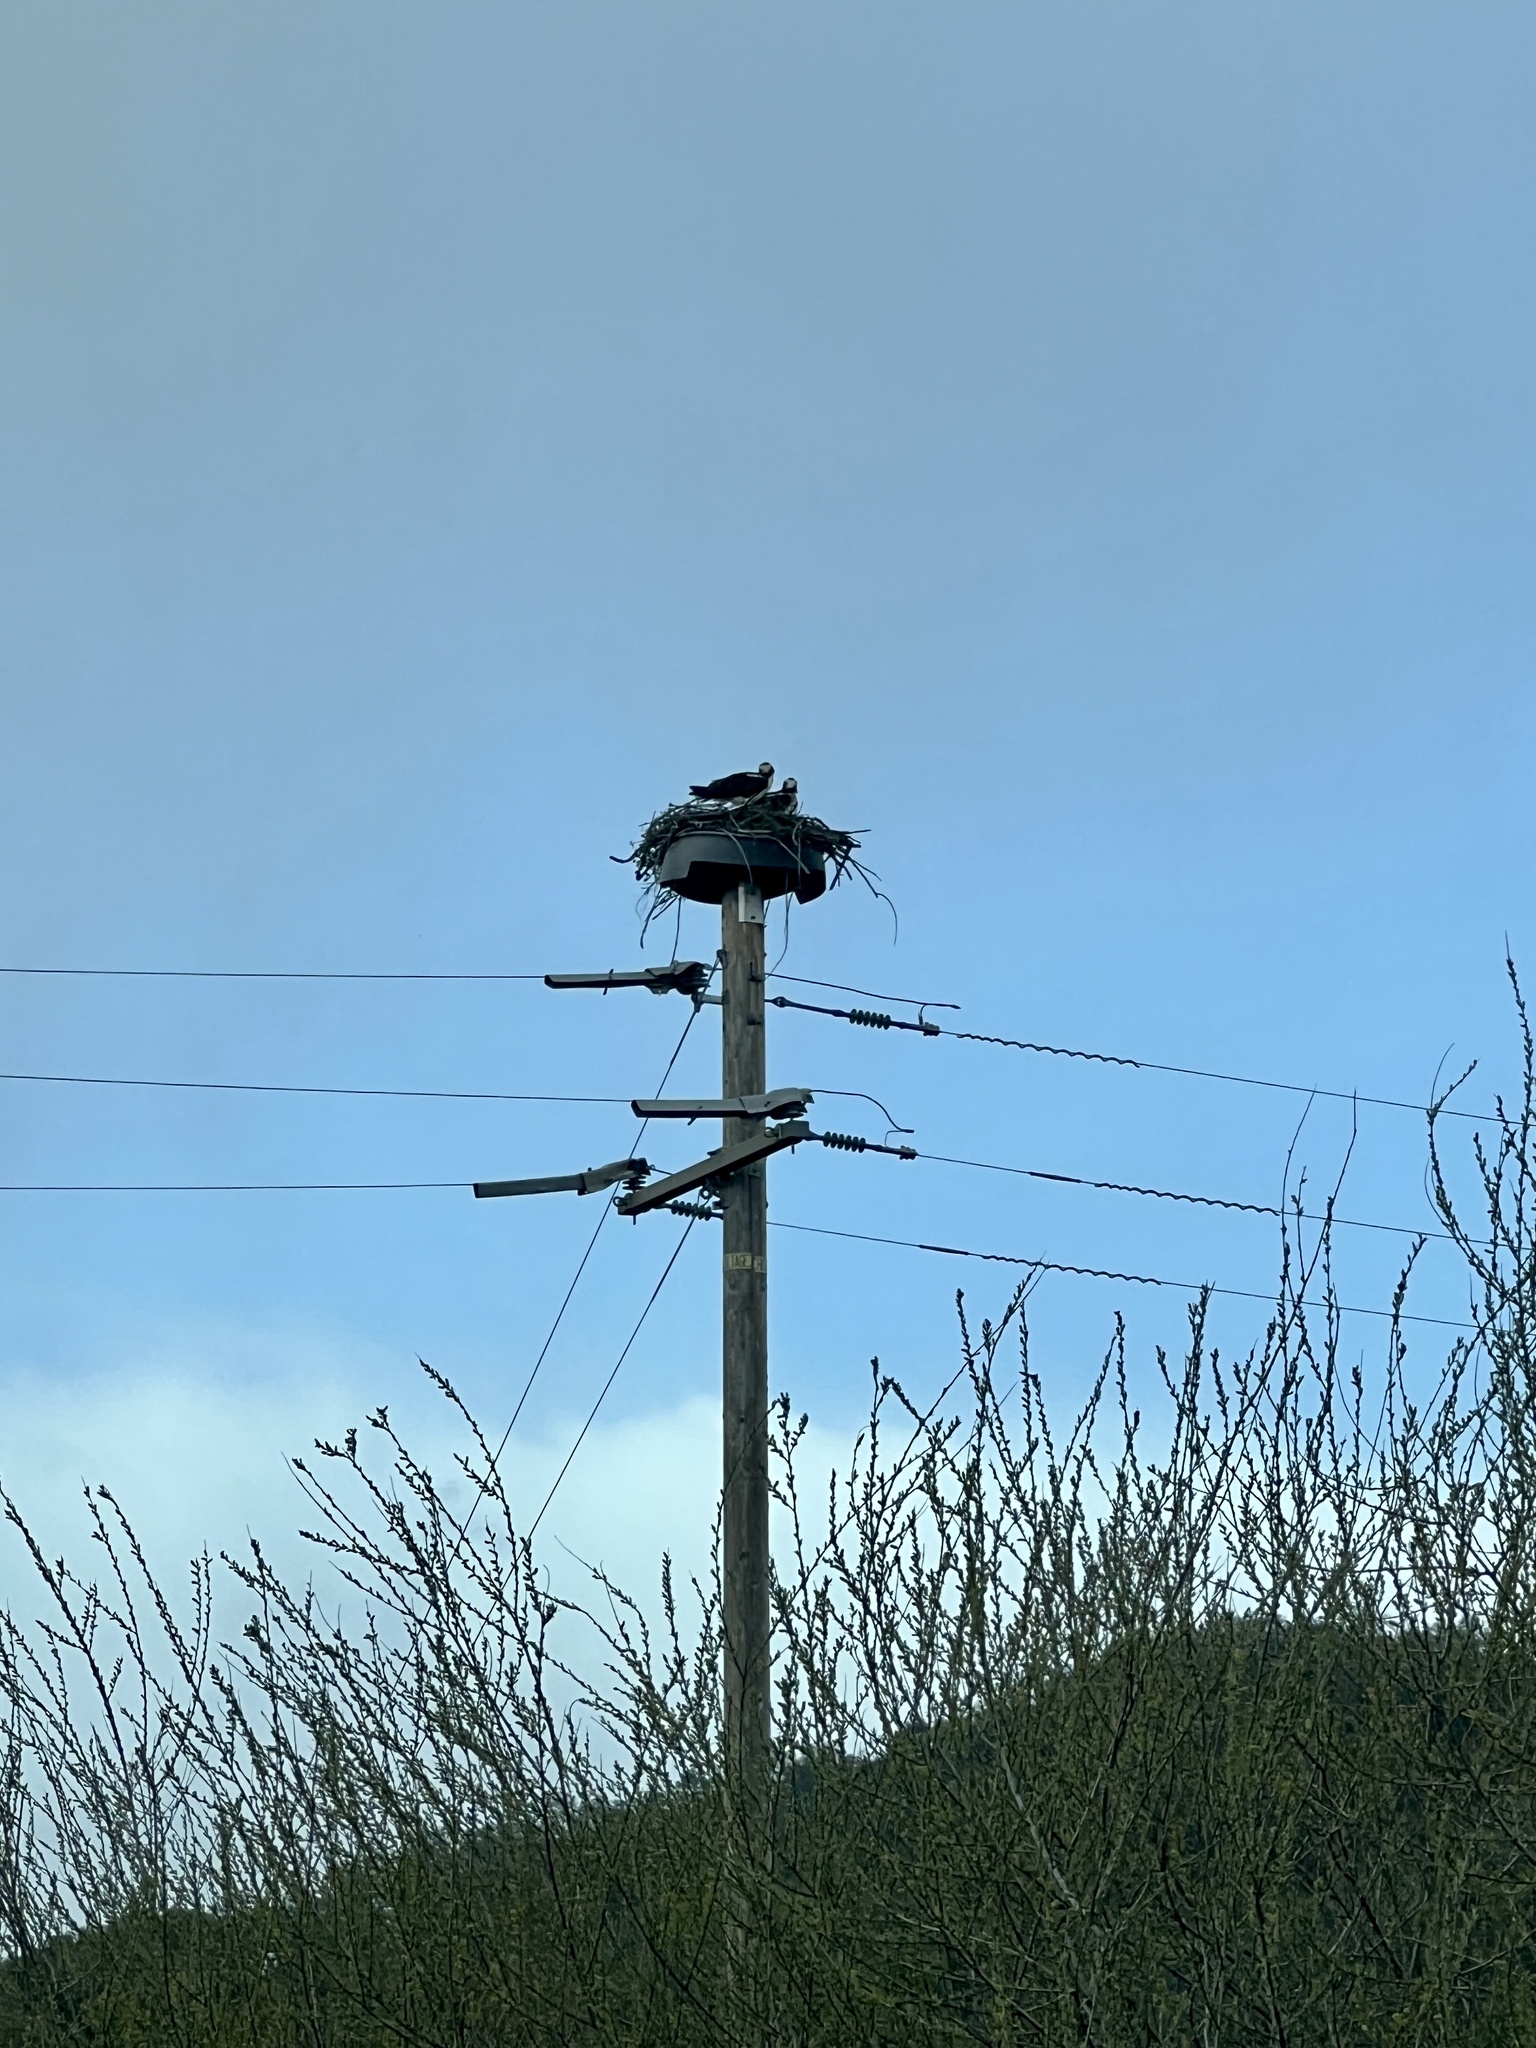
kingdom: Animalia
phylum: Chordata
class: Aves
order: Accipitriformes
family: Pandionidae
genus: Pandion
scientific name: Pandion haliaetus
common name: Osprey
